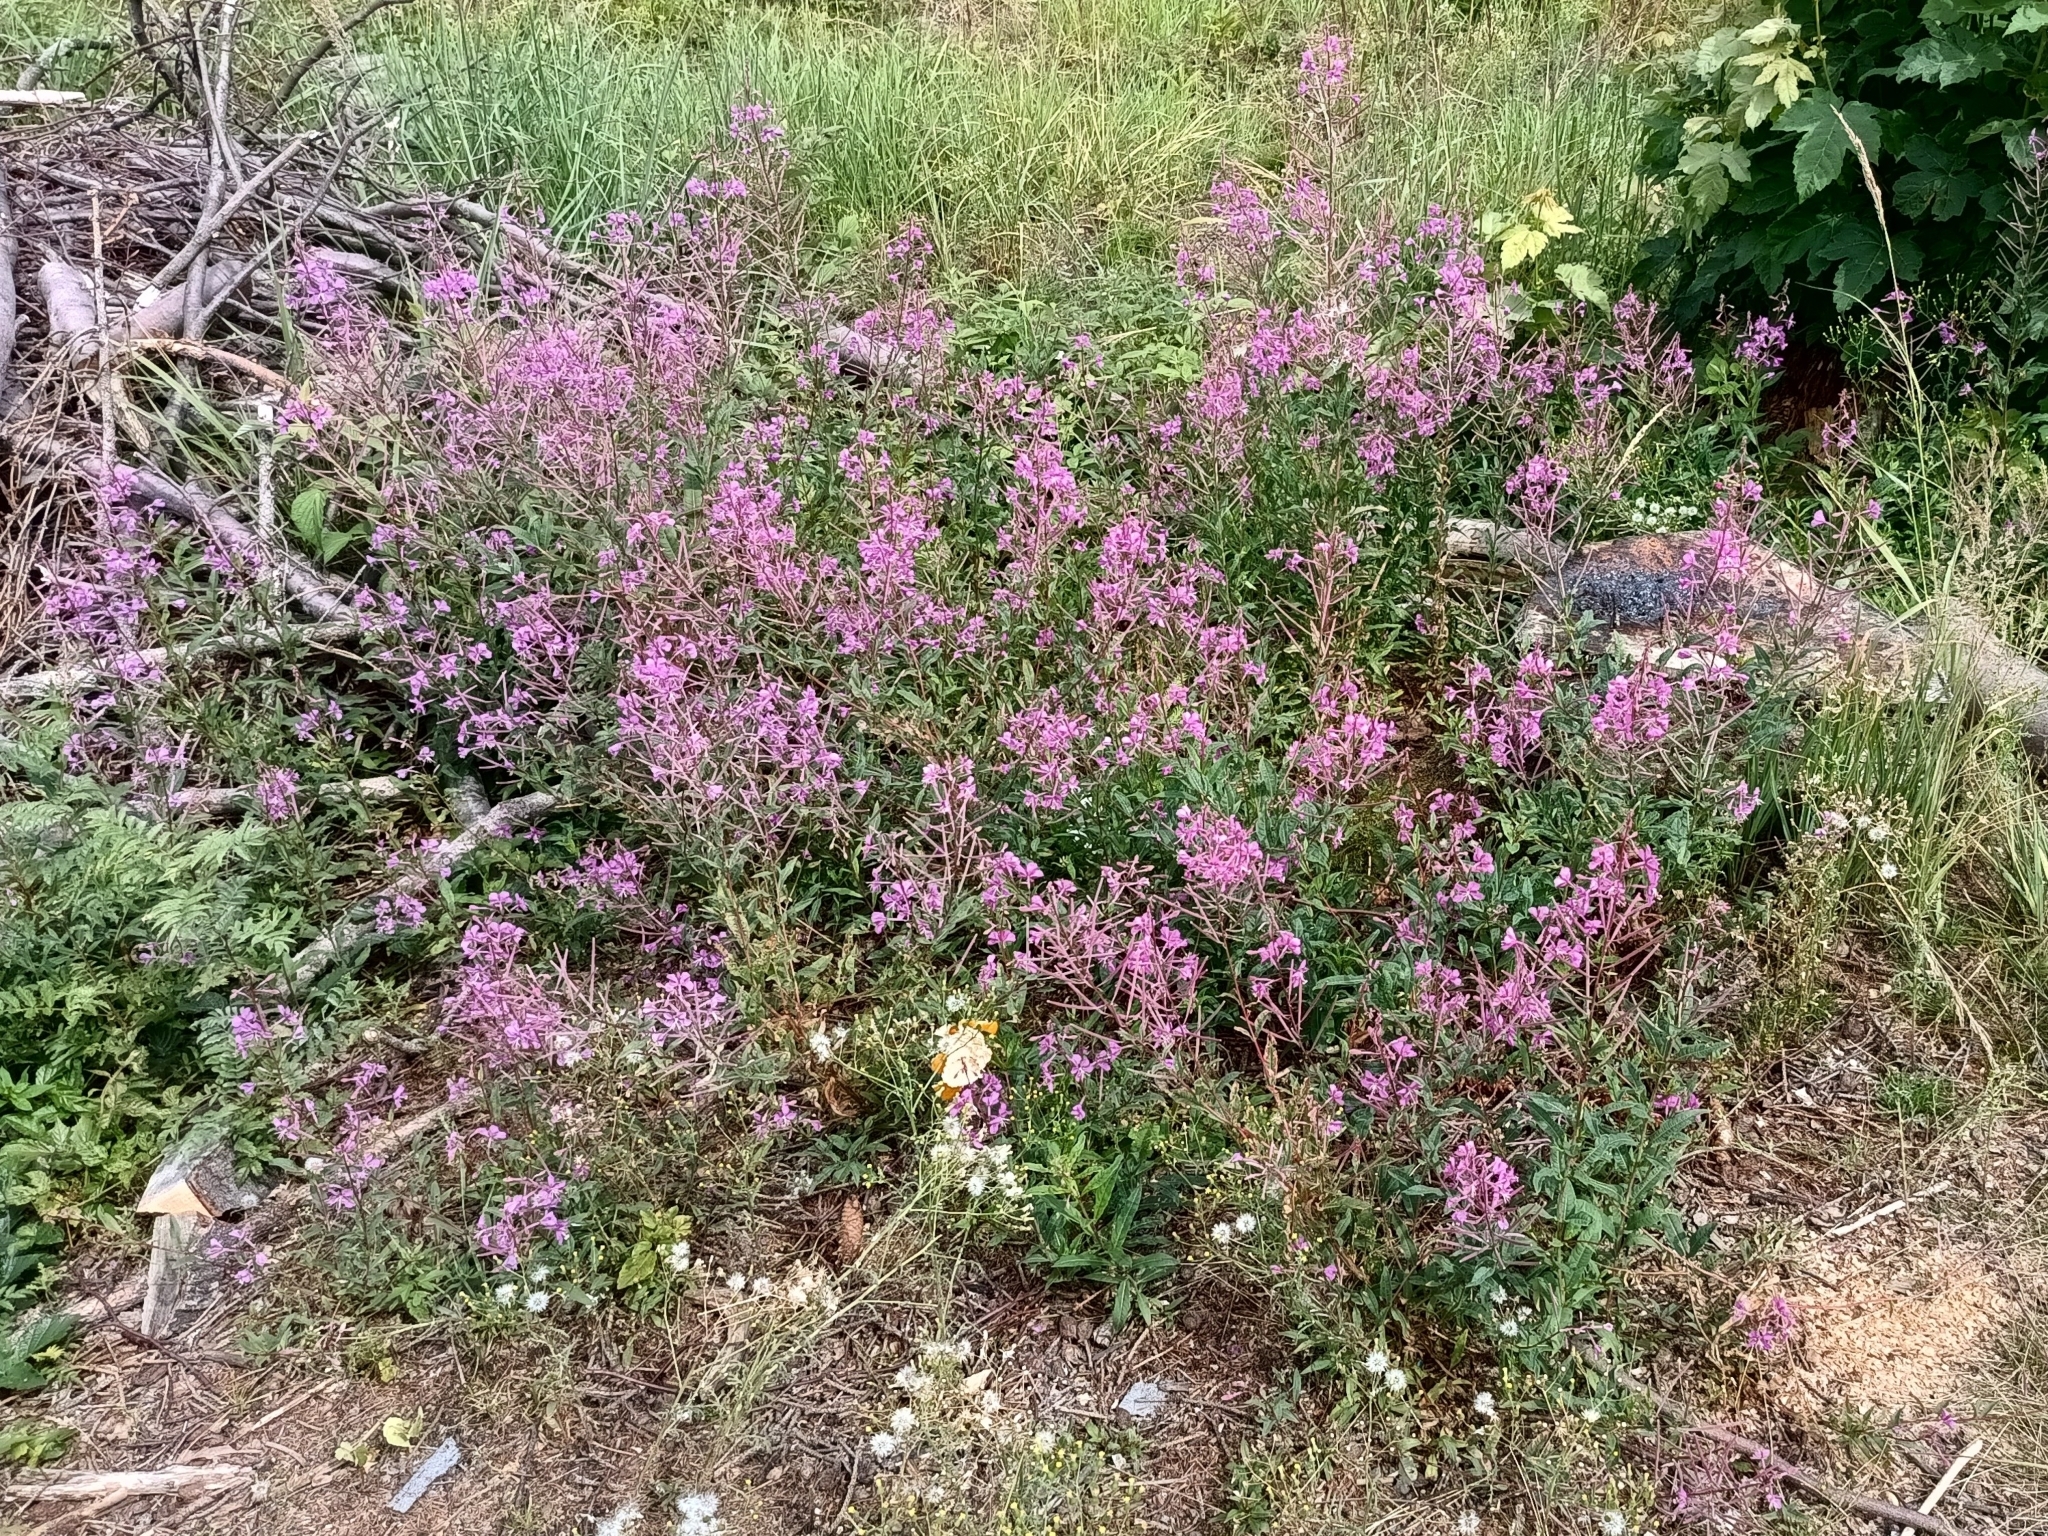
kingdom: Plantae
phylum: Tracheophyta
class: Magnoliopsida
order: Myrtales
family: Onagraceae
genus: Chamaenerion
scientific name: Chamaenerion angustifolium
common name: Fireweed
